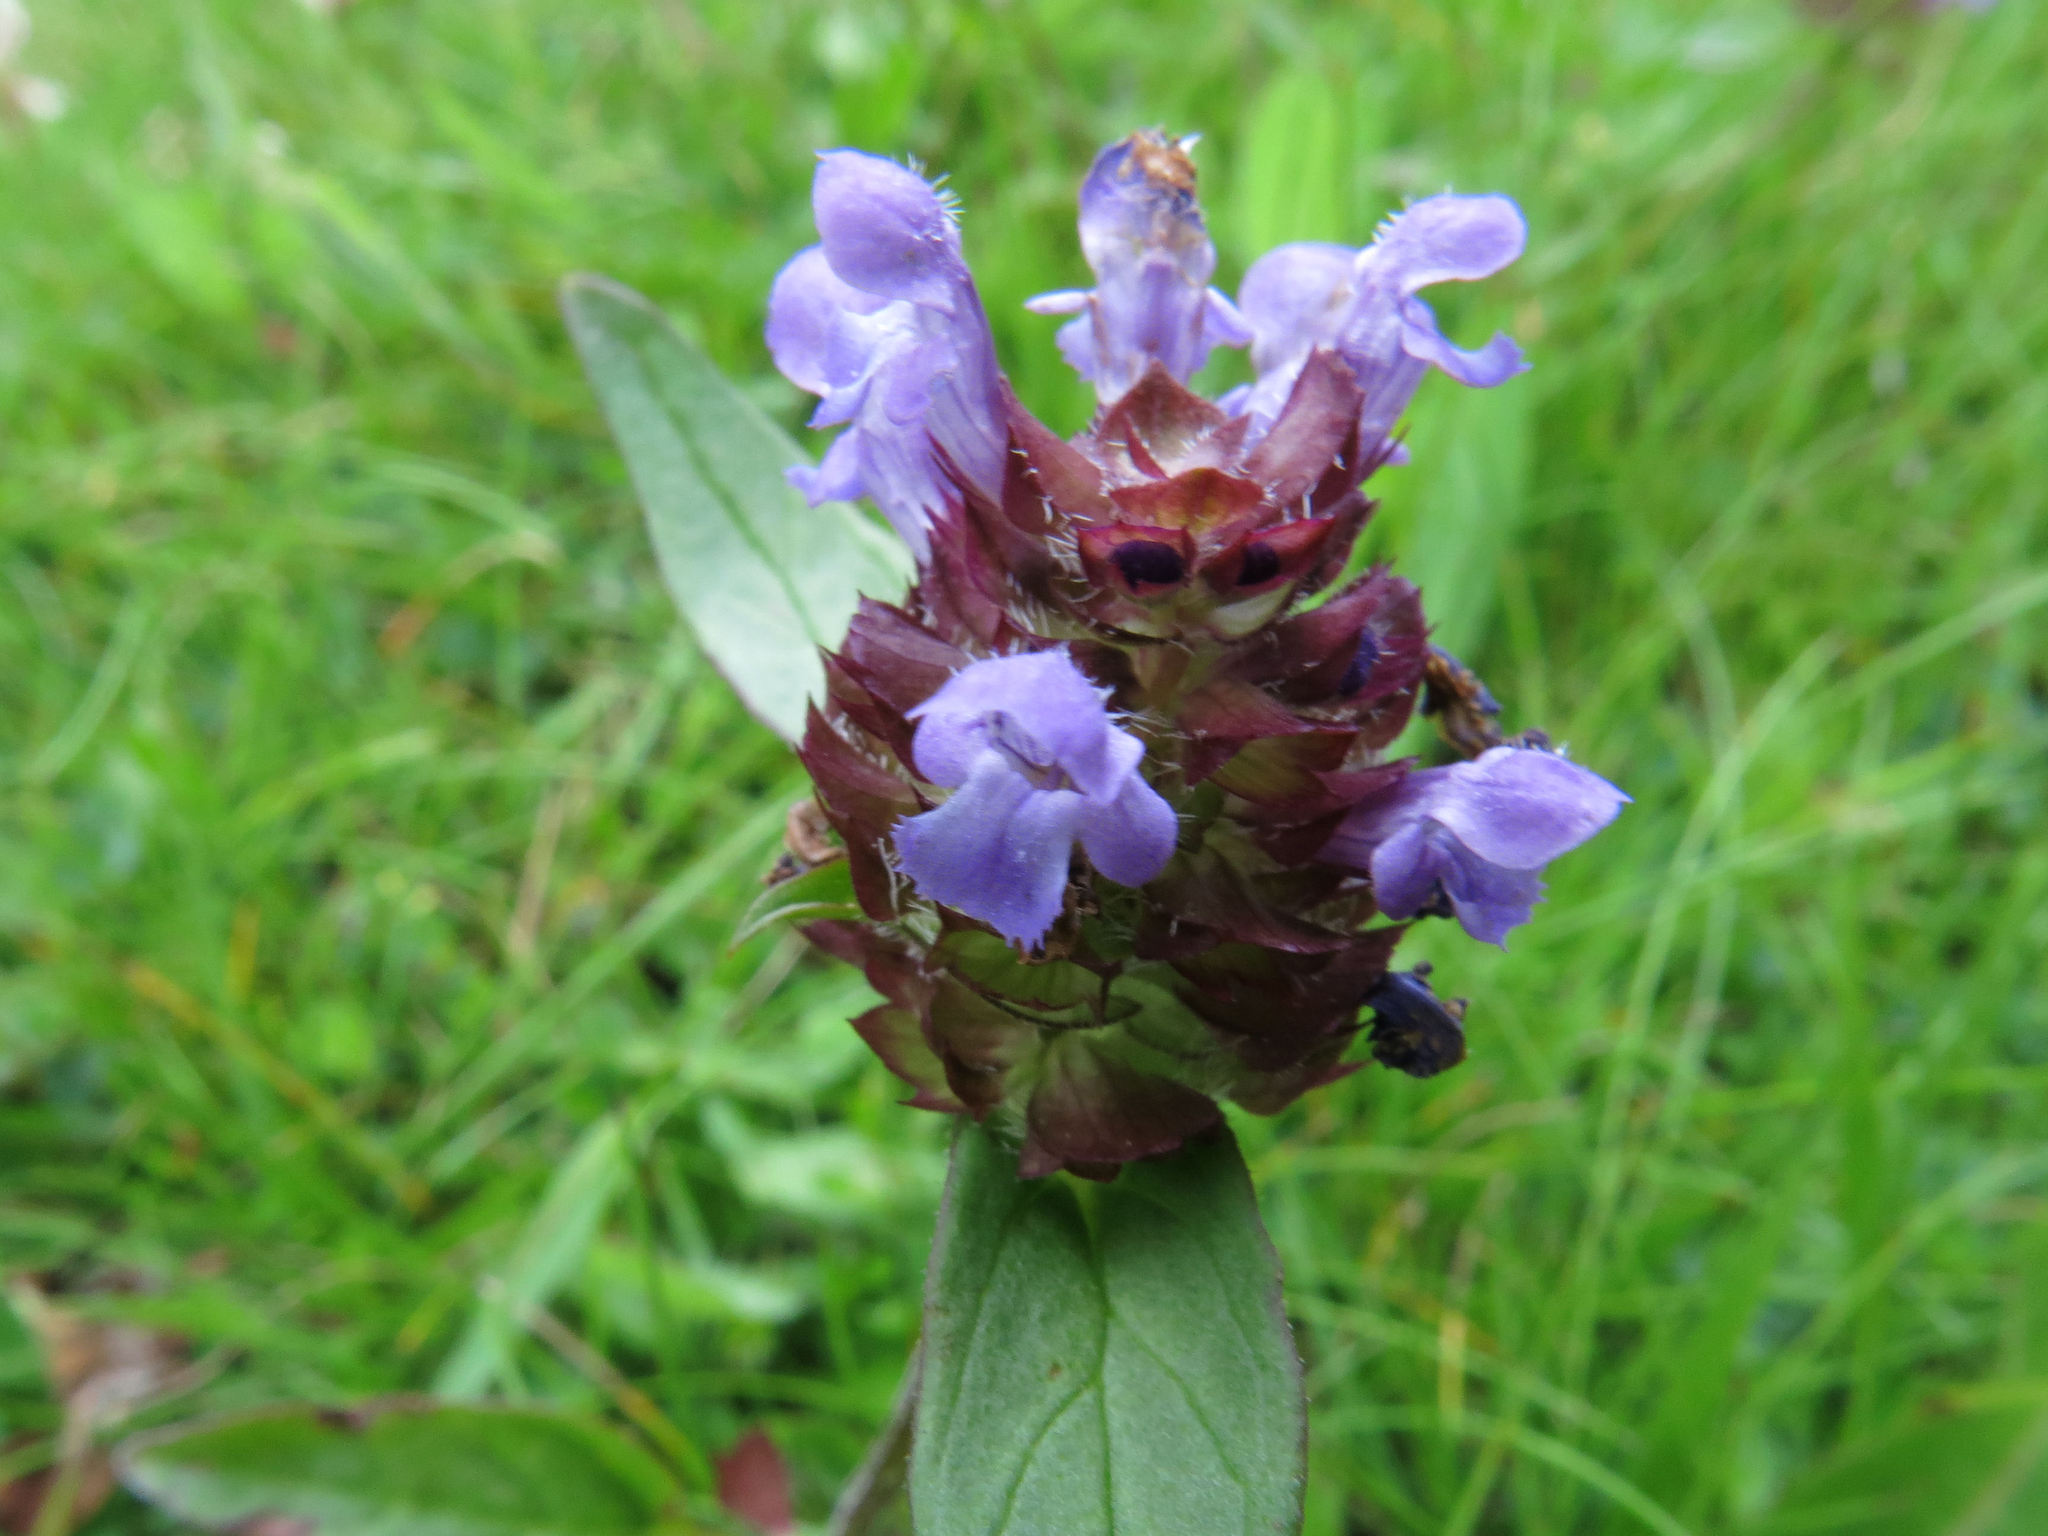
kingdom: Plantae
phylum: Tracheophyta
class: Magnoliopsida
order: Lamiales
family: Lamiaceae
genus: Prunella
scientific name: Prunella vulgaris
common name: Heal-all
